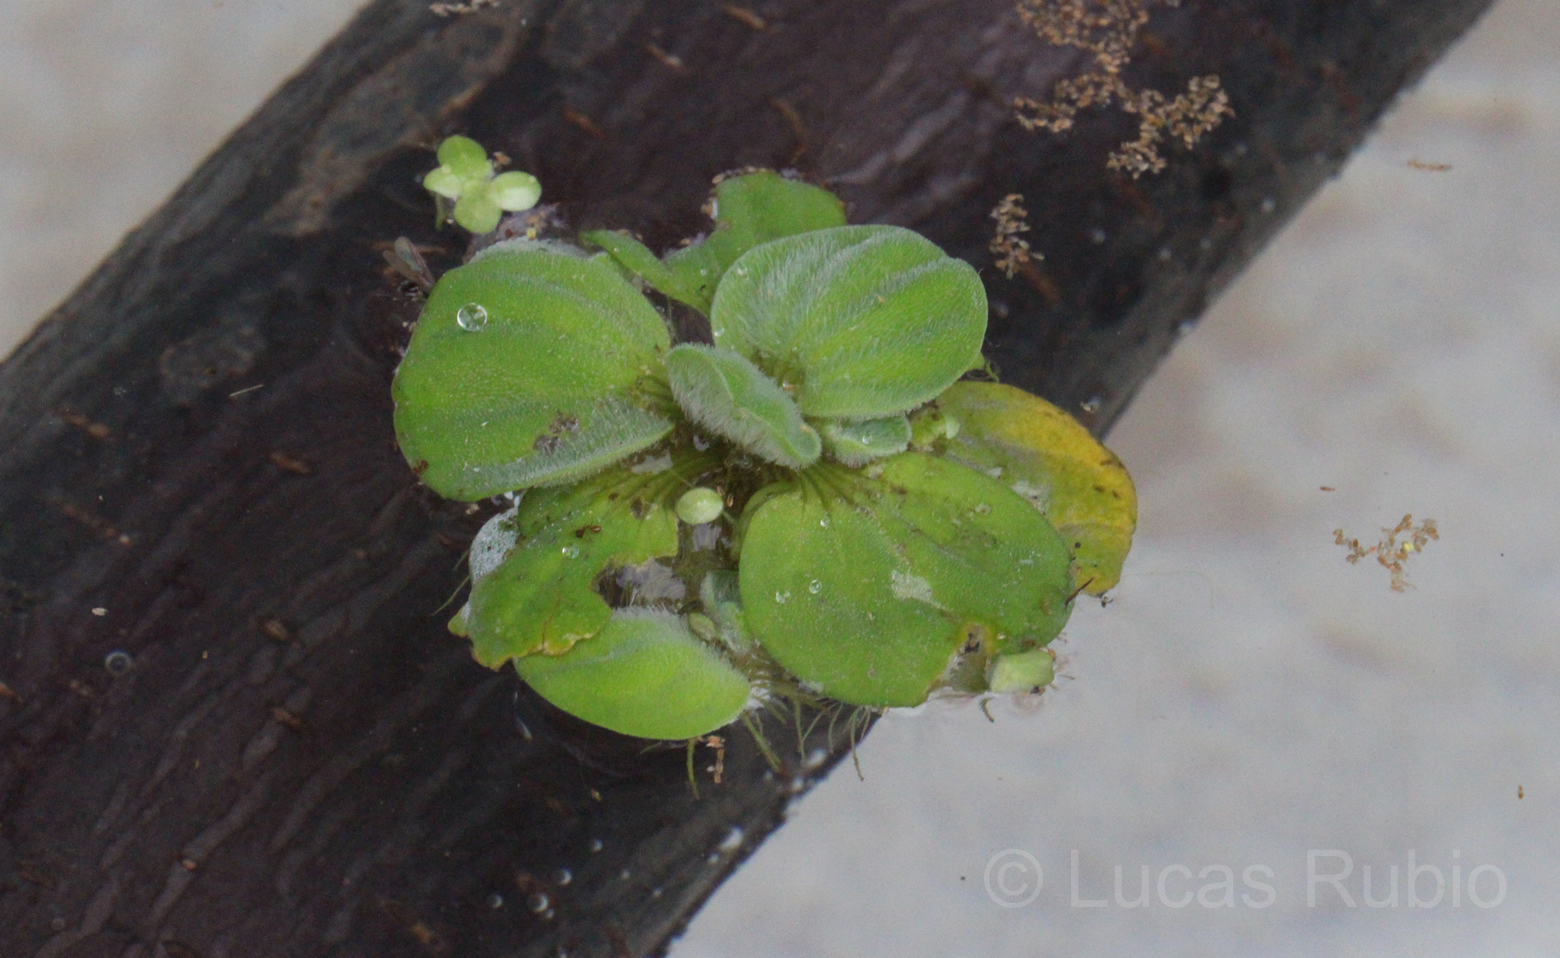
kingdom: Plantae
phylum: Tracheophyta
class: Liliopsida
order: Alismatales
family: Araceae
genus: Pistia
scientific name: Pistia stratiotes
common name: Water lettuce
